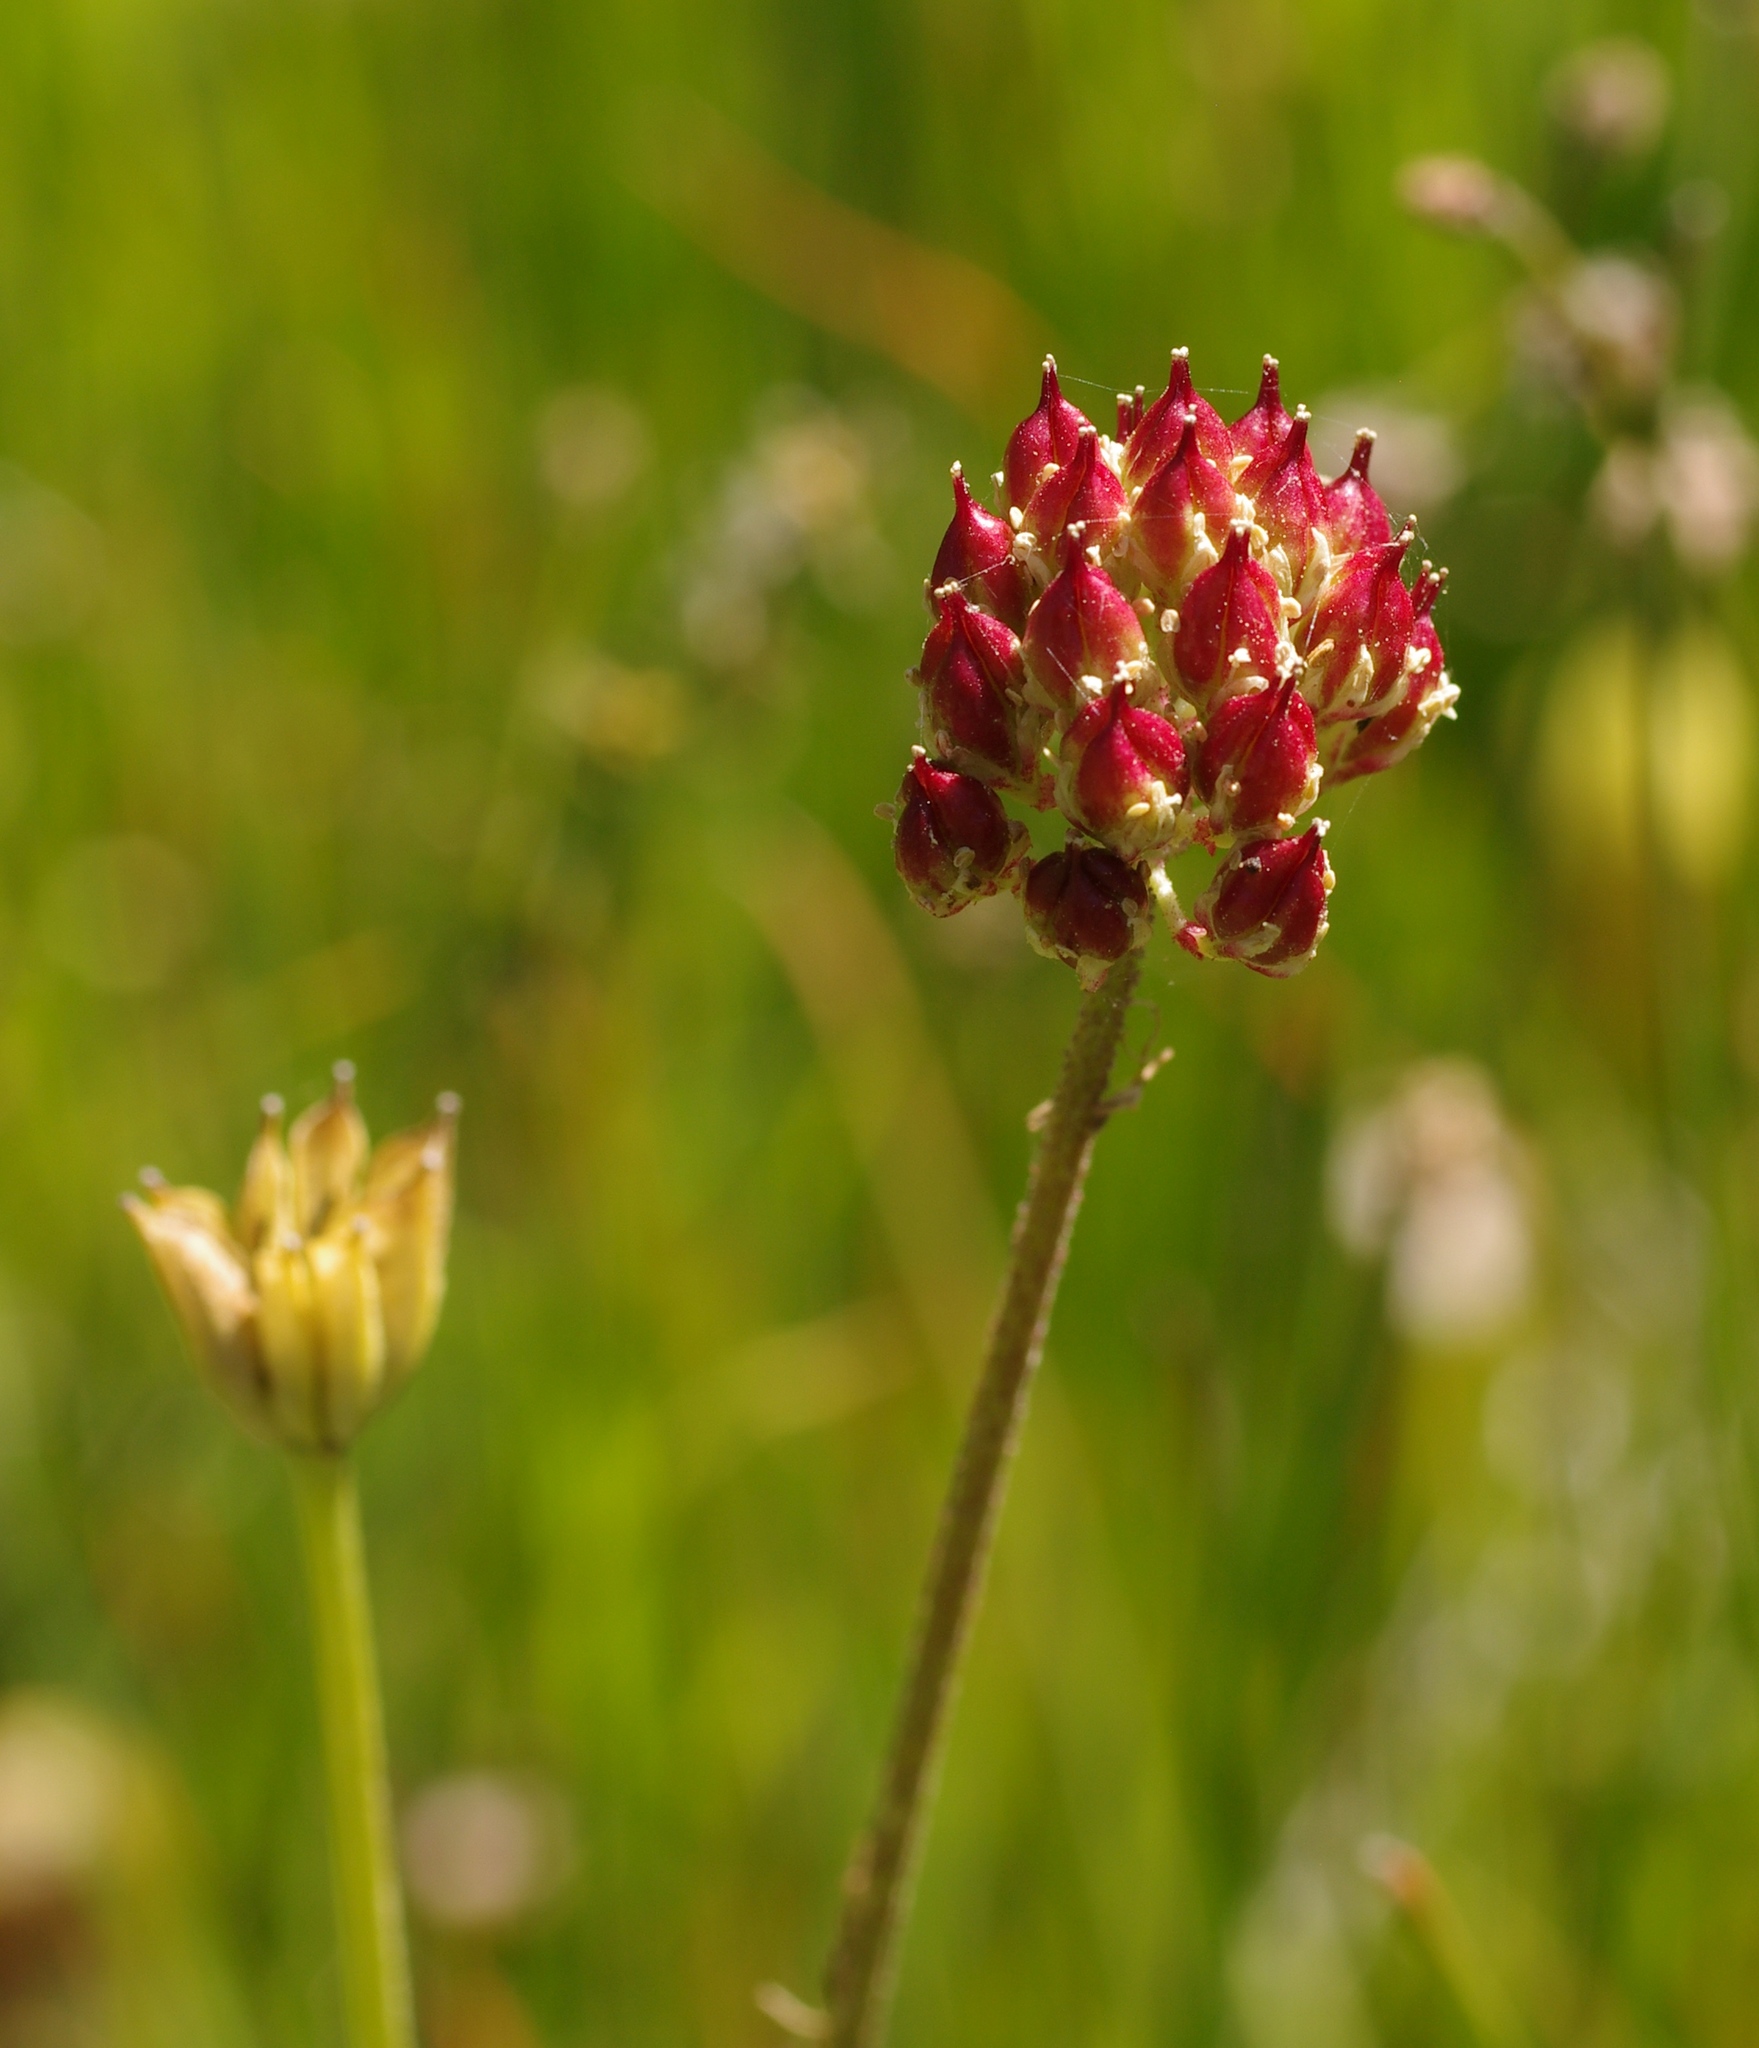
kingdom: Plantae
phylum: Tracheophyta
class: Liliopsida
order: Alismatales
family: Tofieldiaceae
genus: Triantha
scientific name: Triantha occidentalis
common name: Western false asphodel
